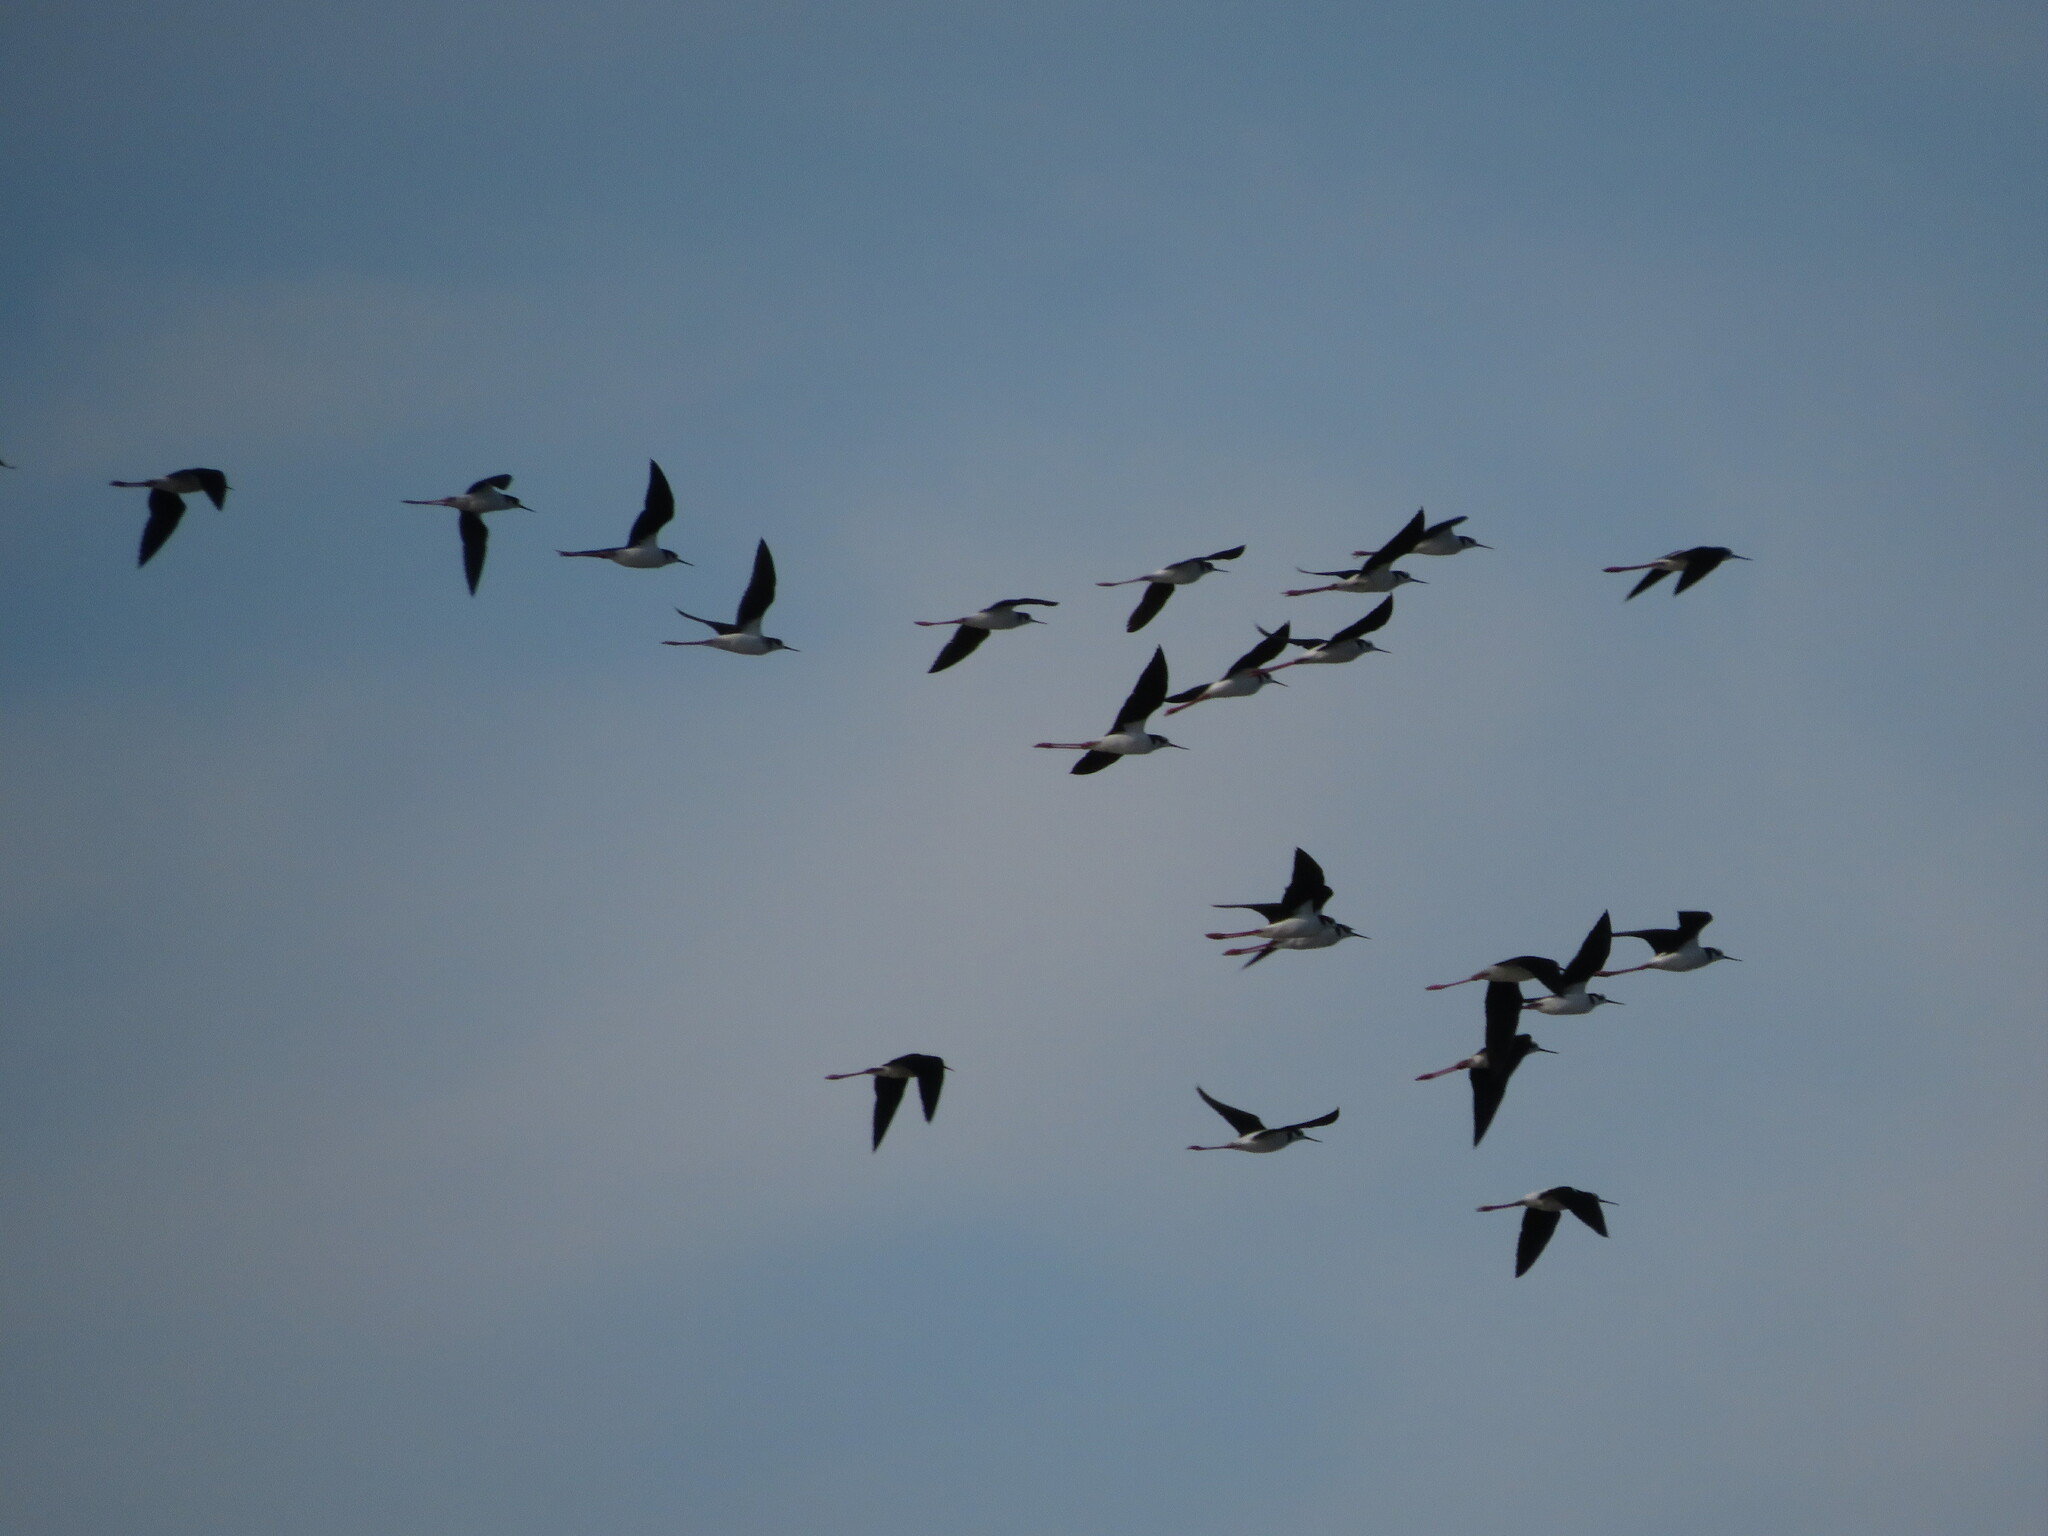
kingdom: Animalia
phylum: Chordata
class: Aves
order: Charadriiformes
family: Recurvirostridae
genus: Himantopus
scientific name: Himantopus mexicanus
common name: Black-necked stilt
